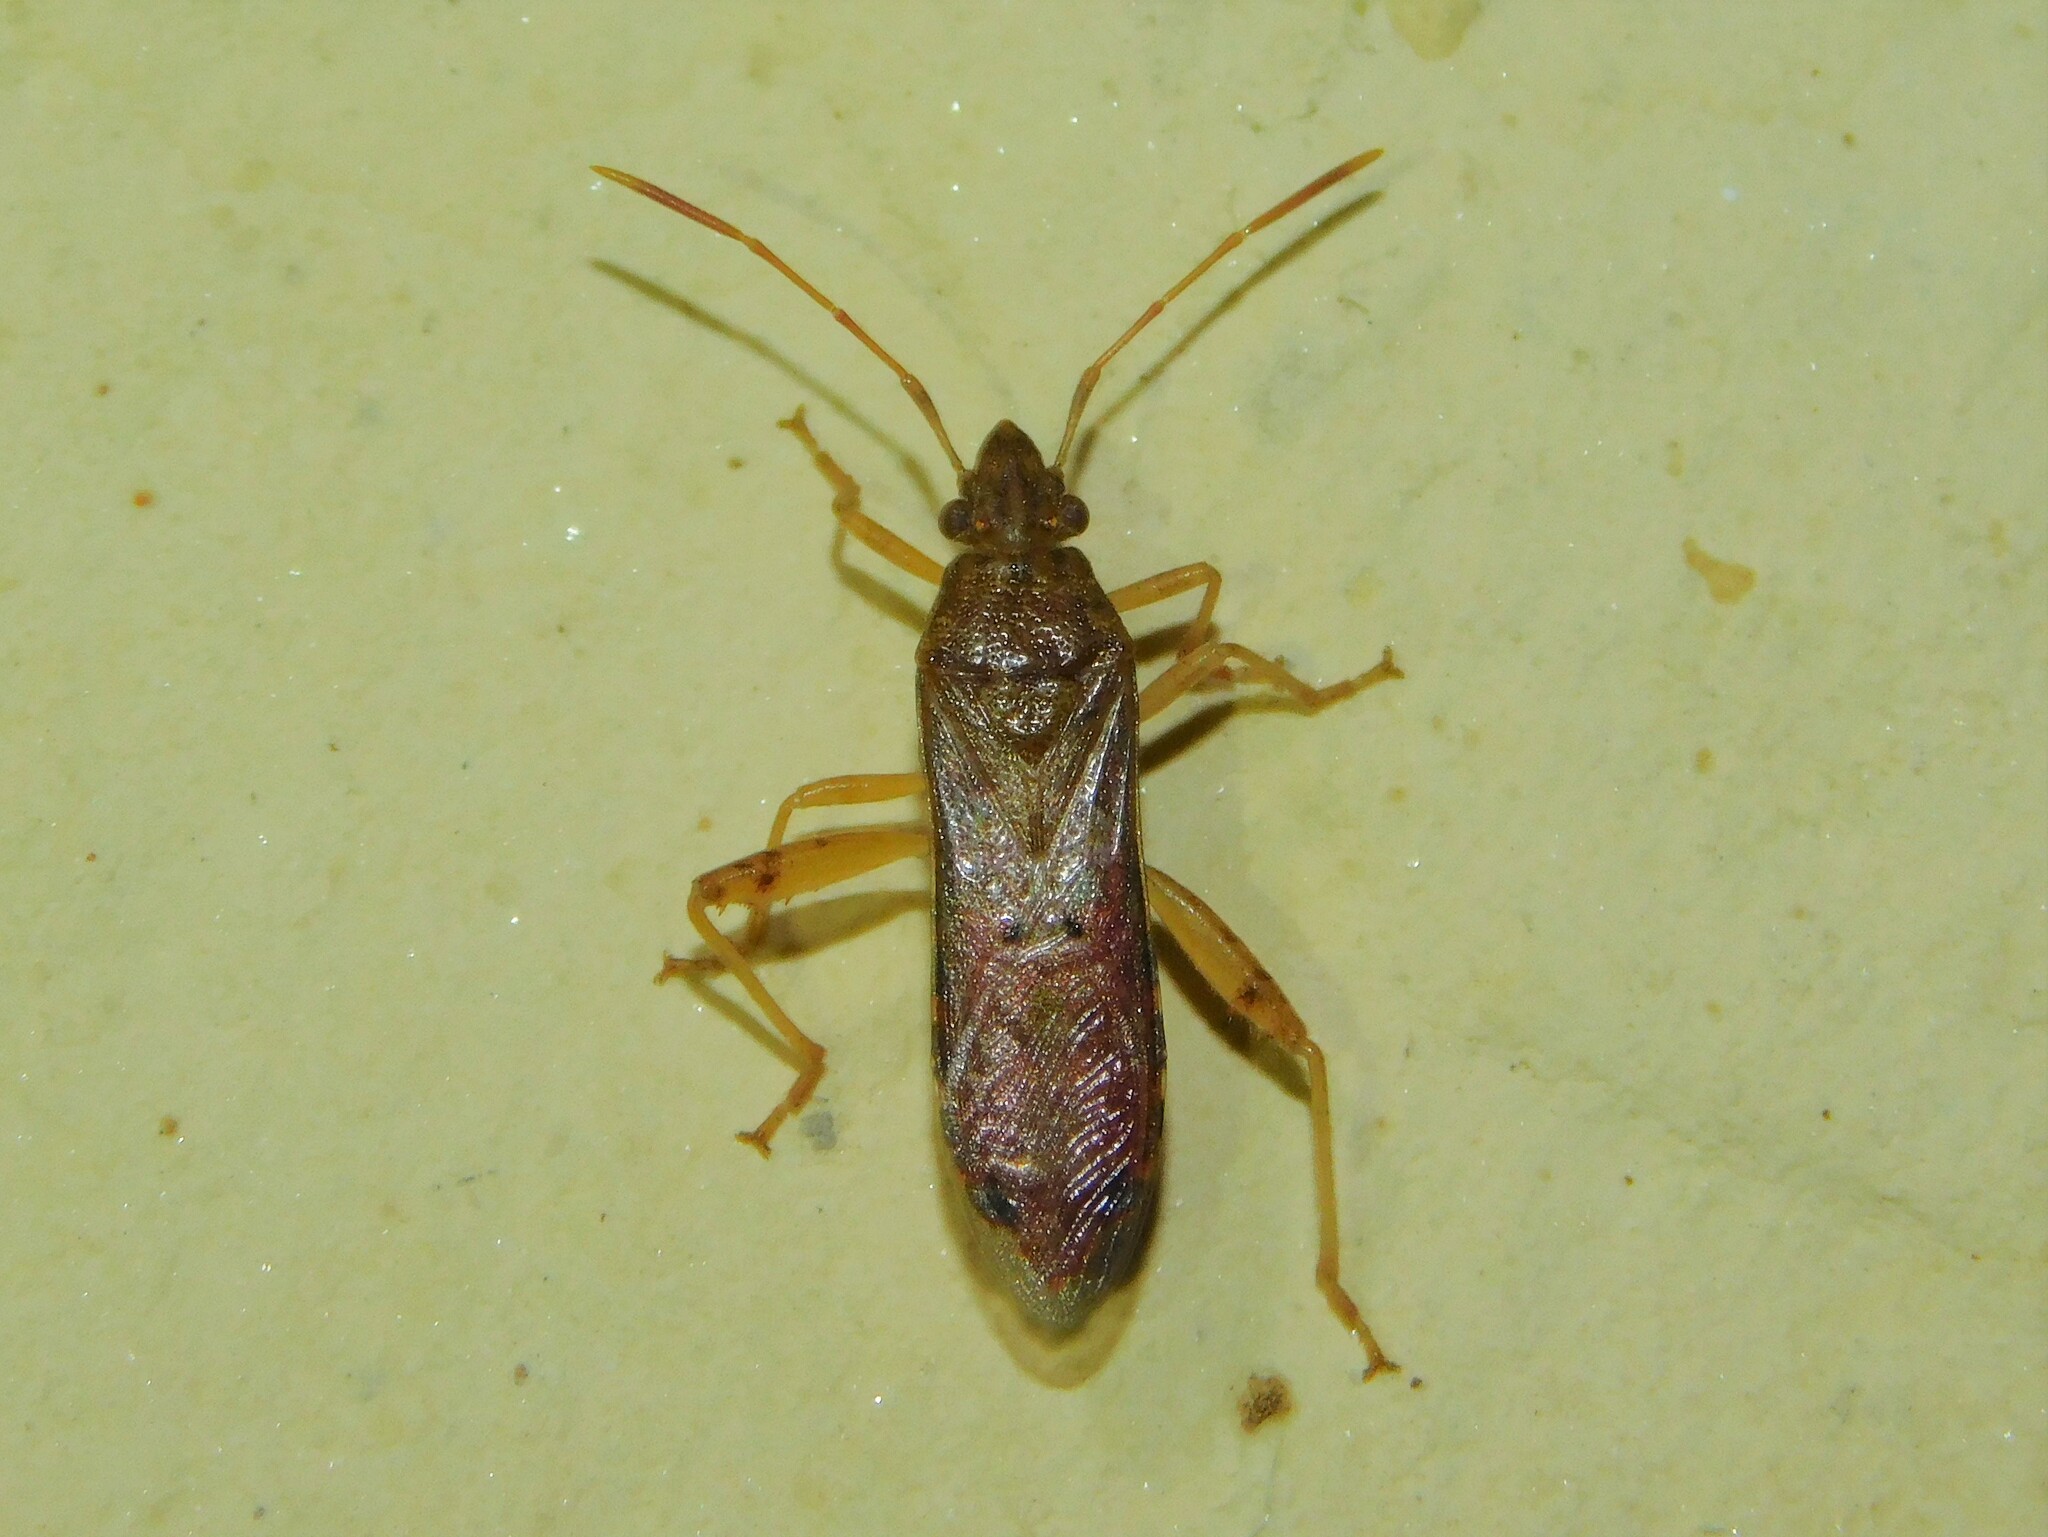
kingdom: Animalia
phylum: Arthropoda
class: Insecta
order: Hemiptera
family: Alydidae
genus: Daclera
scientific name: Daclera punctata
